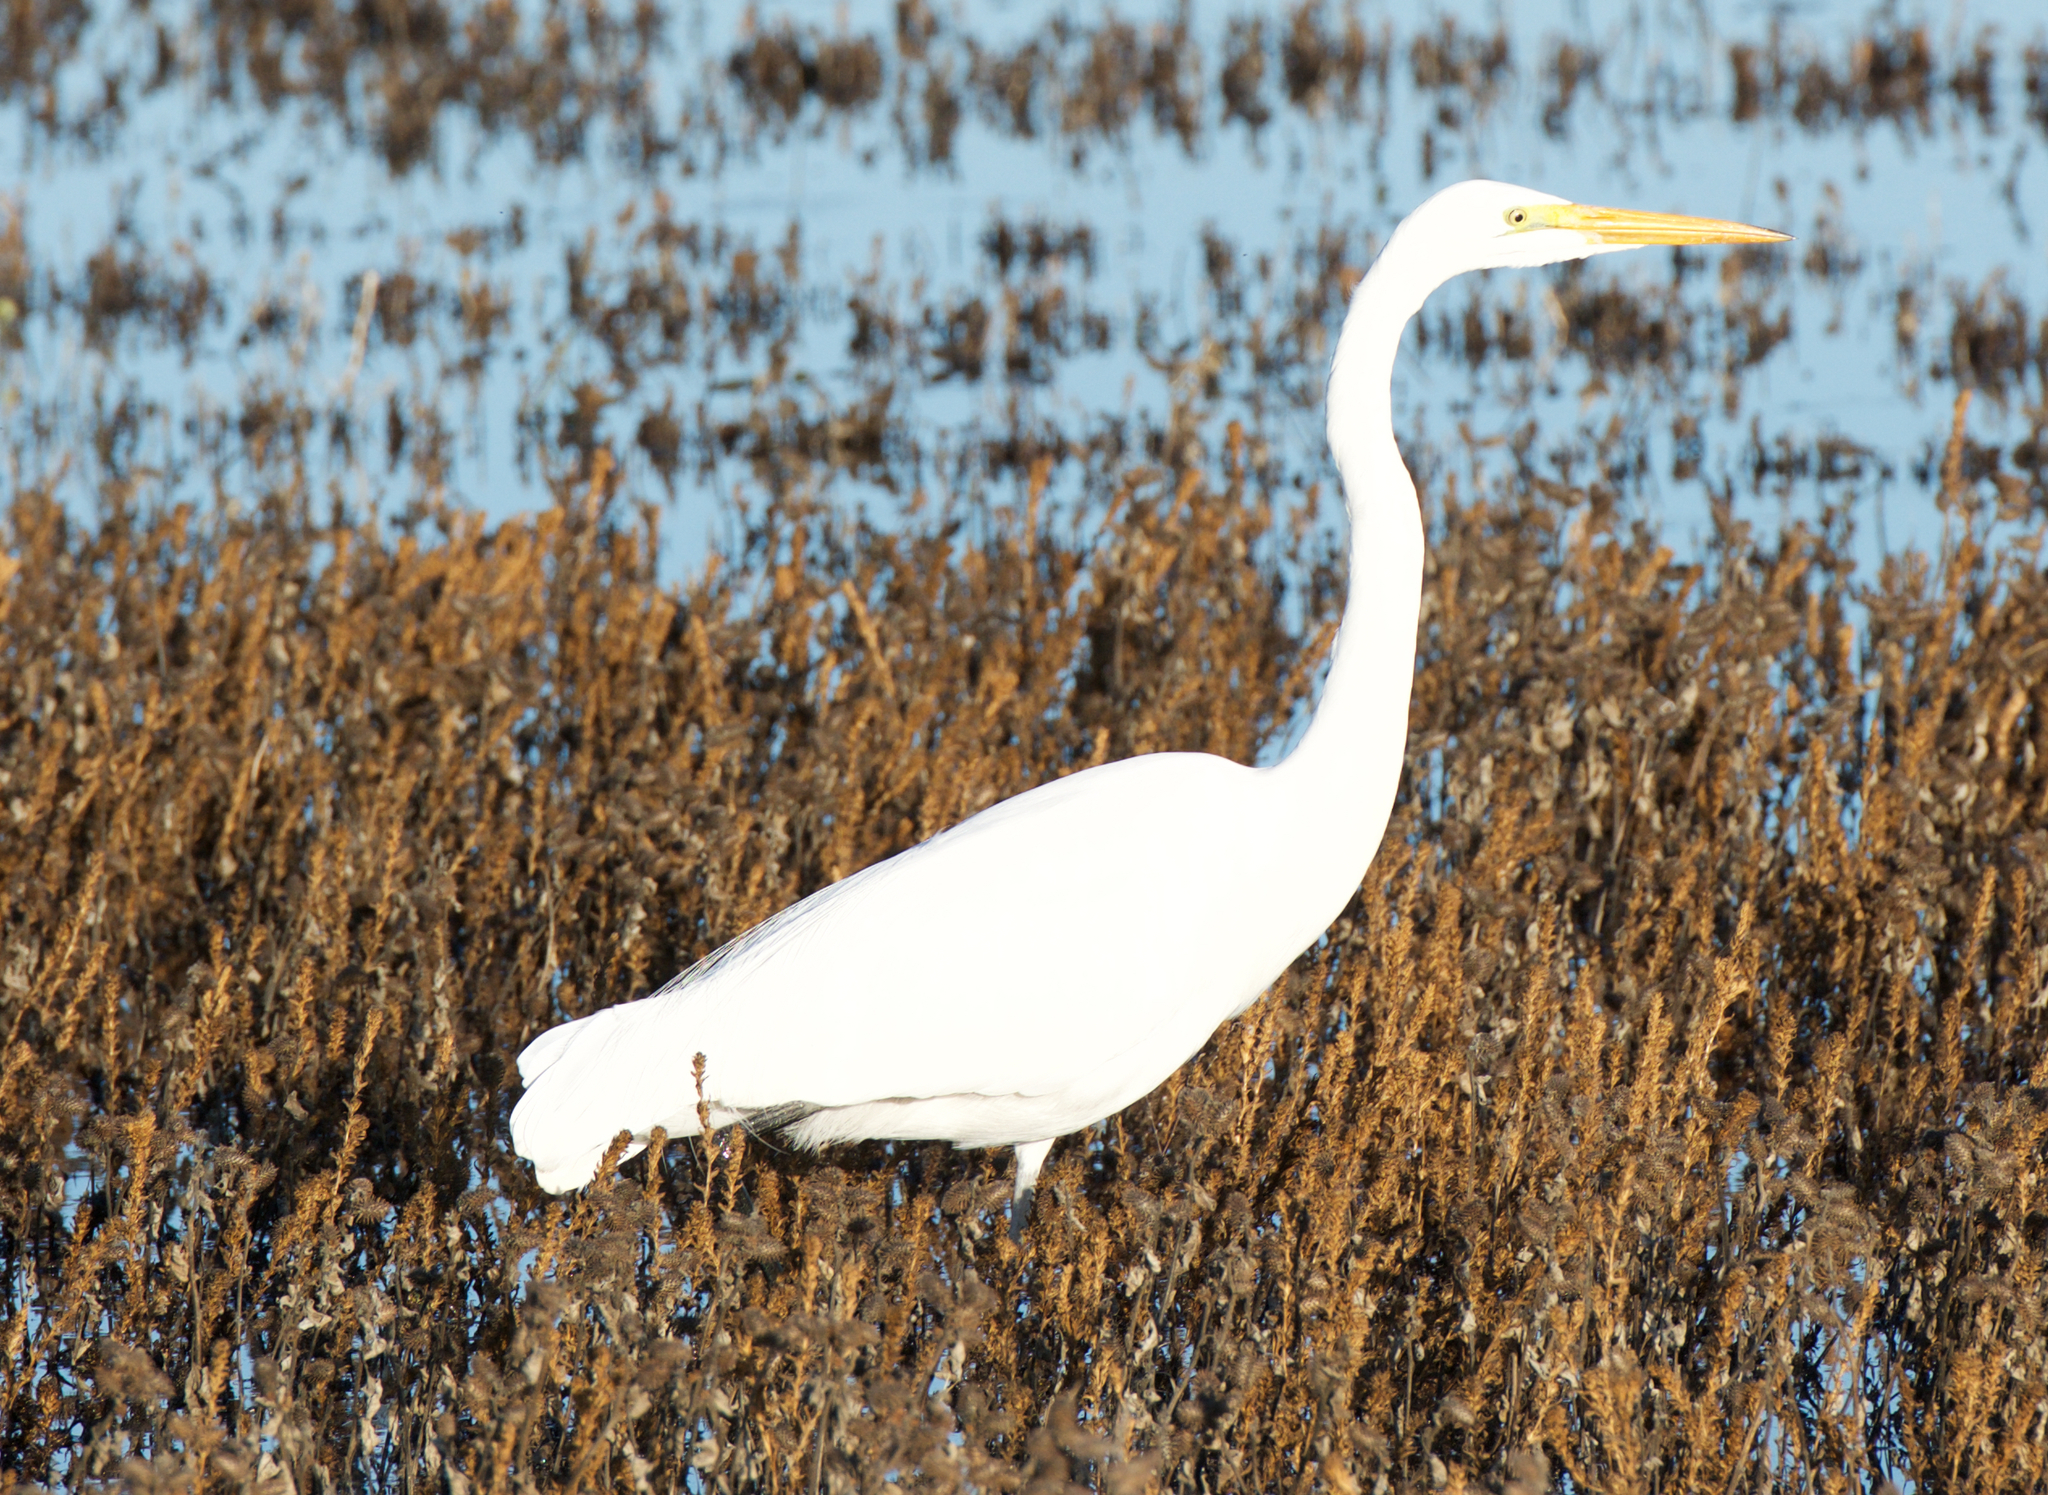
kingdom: Animalia
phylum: Chordata
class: Aves
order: Pelecaniformes
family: Ardeidae
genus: Ardea
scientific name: Ardea alba
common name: Great egret
